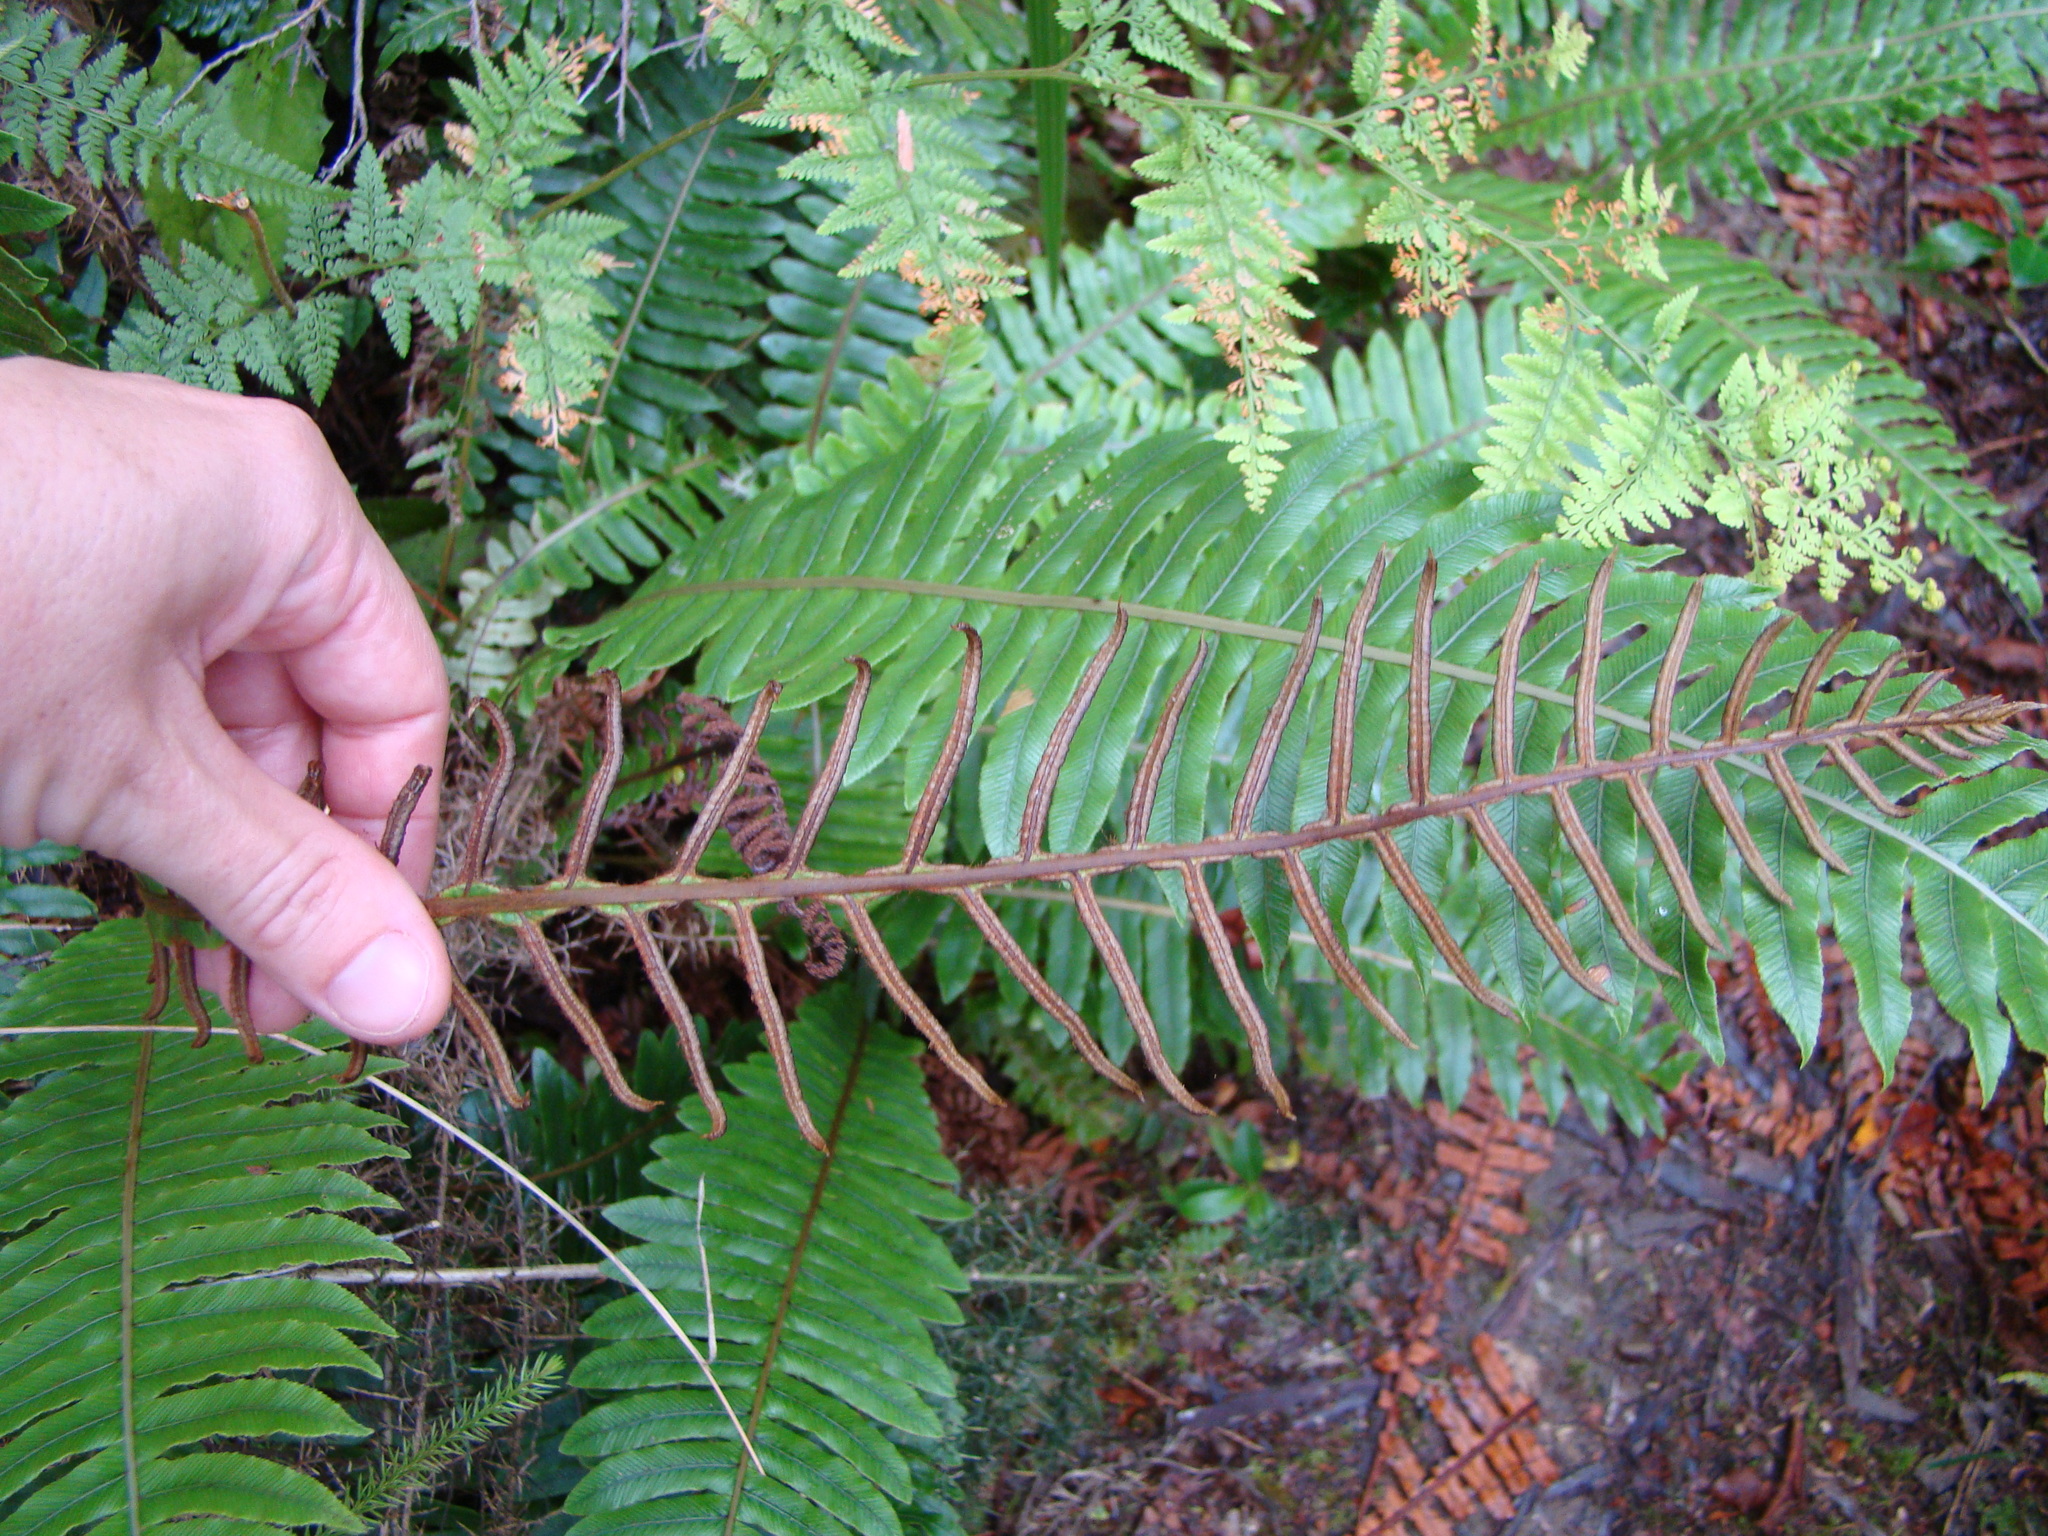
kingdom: Plantae
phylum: Tracheophyta
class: Polypodiopsida
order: Polypodiales
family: Blechnaceae
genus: Lomaria
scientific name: Lomaria discolor
